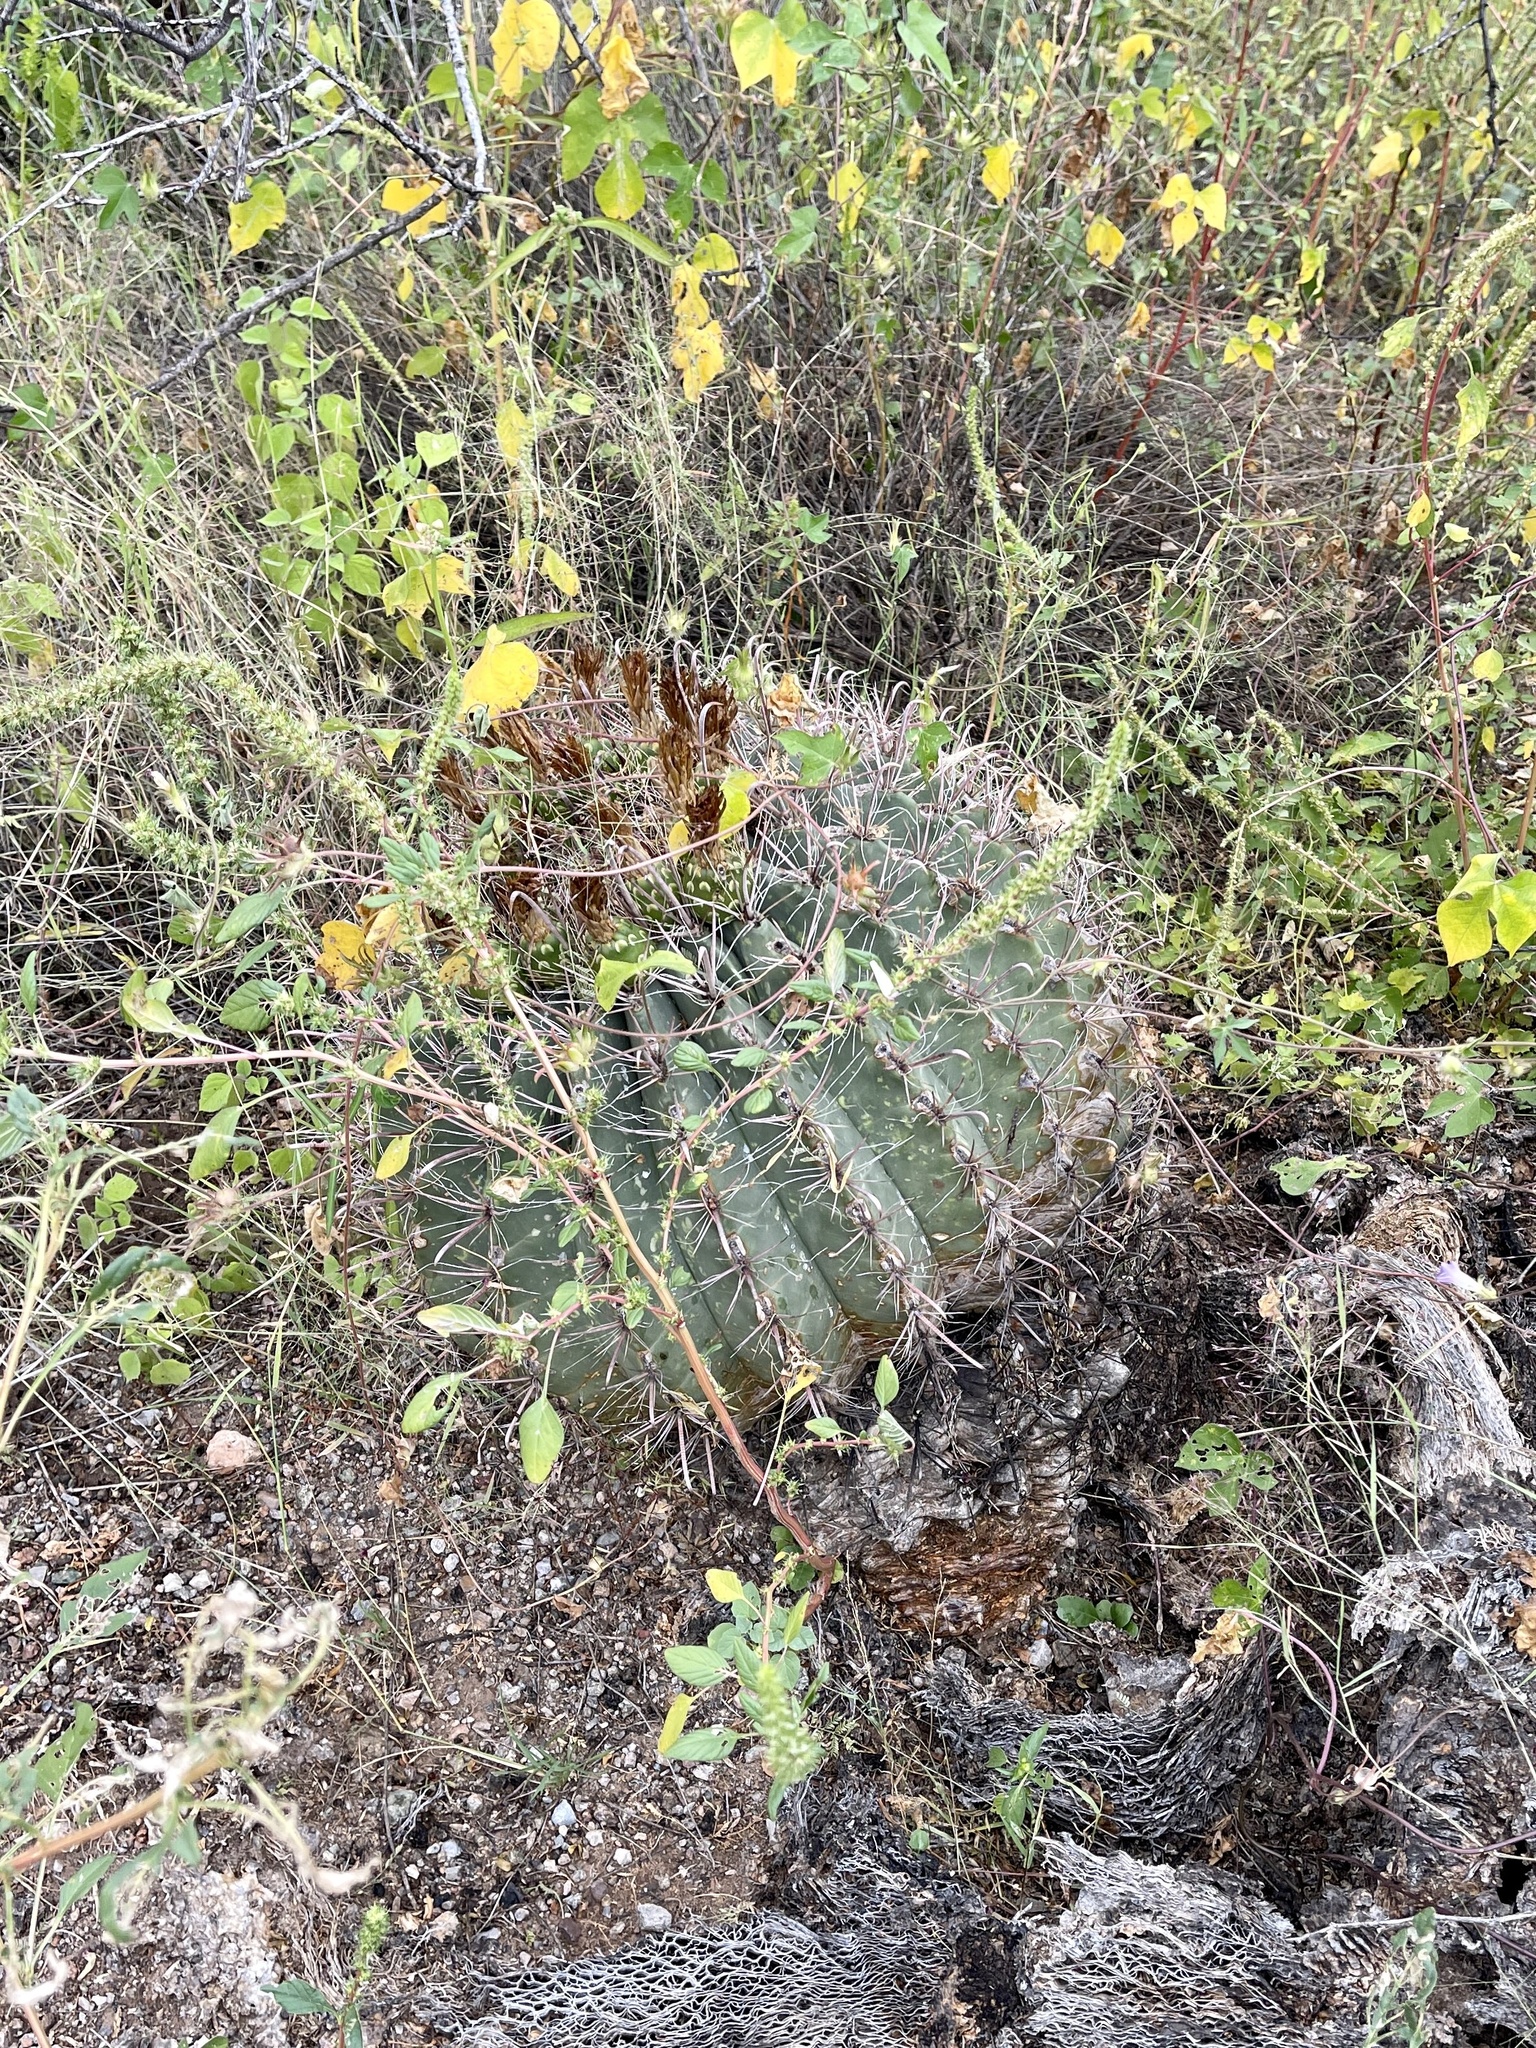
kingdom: Plantae
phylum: Tracheophyta
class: Magnoliopsida
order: Caryophyllales
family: Cactaceae
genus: Ferocactus
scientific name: Ferocactus wislizeni
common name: Candy barrel cactus
